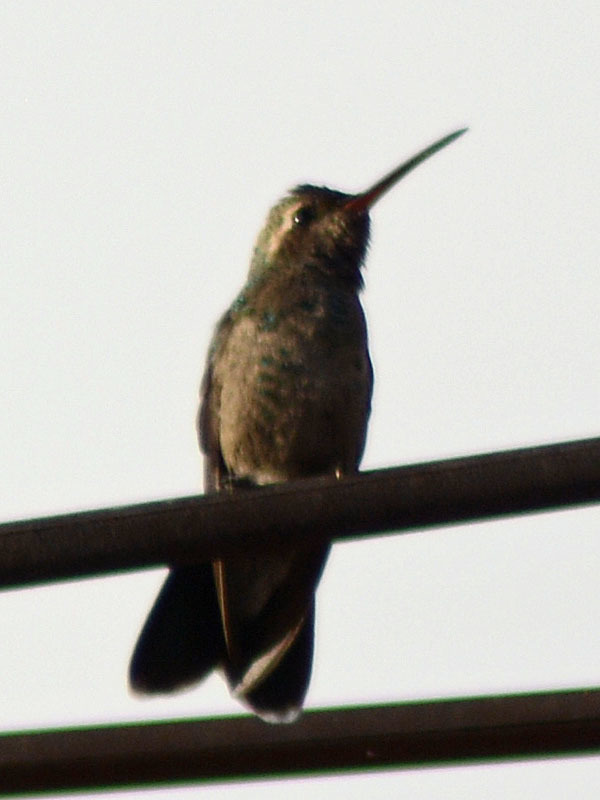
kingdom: Animalia
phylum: Chordata
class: Aves
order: Apodiformes
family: Trochilidae
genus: Cynanthus
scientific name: Cynanthus latirostris
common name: Broad-billed hummingbird
